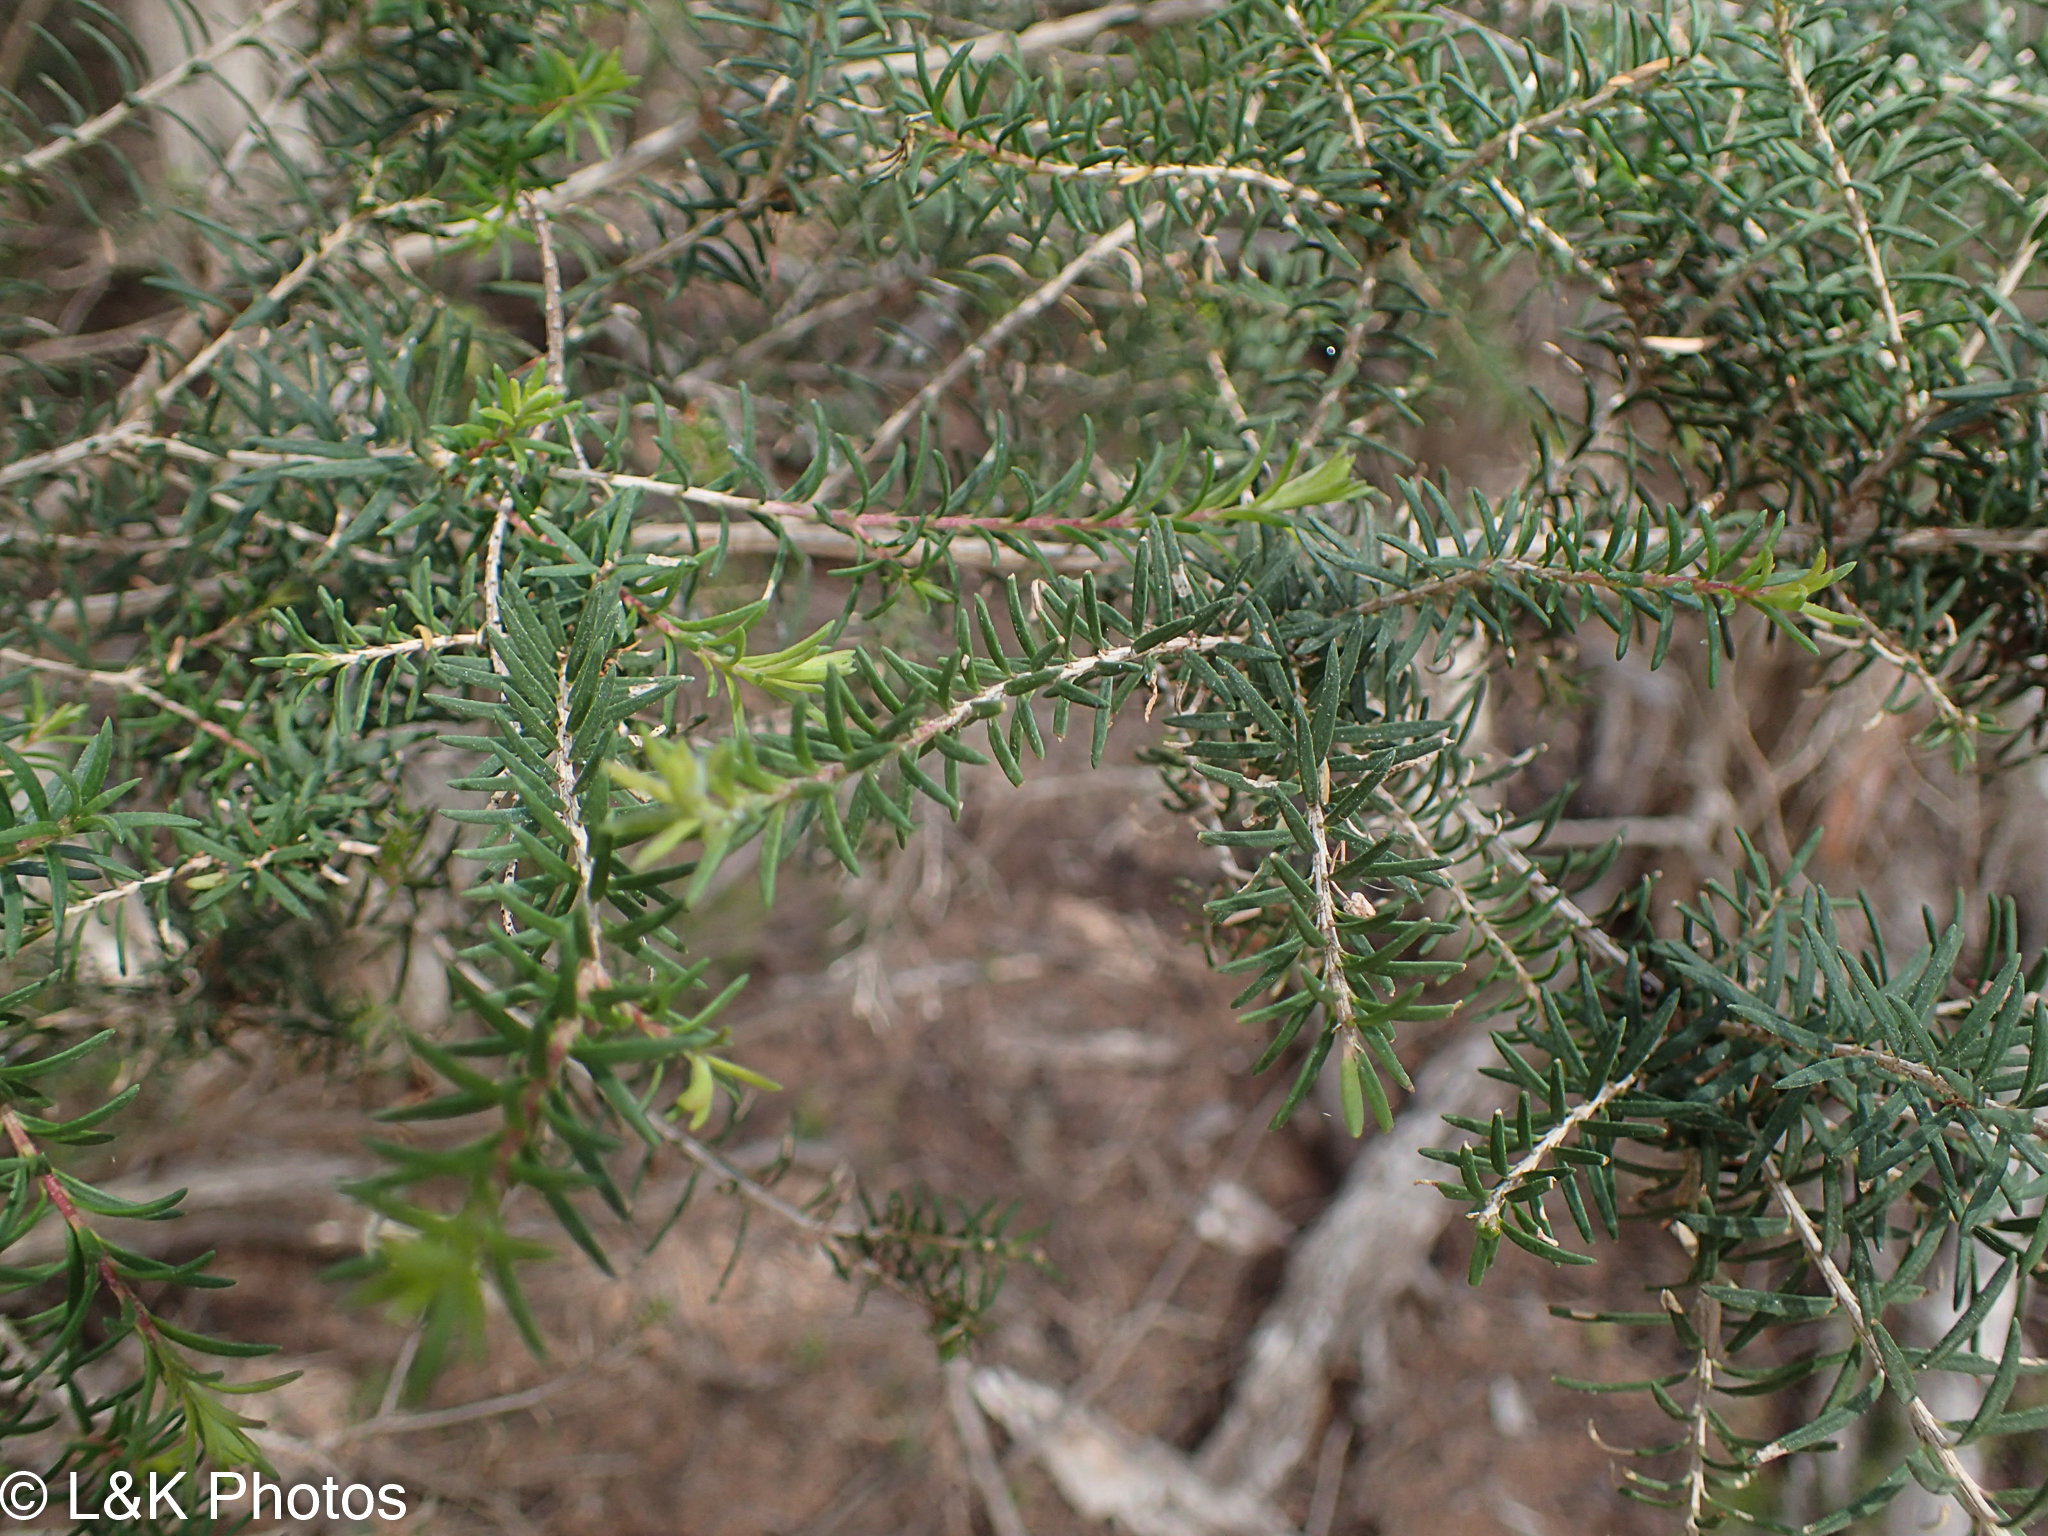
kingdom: Plantae
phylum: Tracheophyta
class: Magnoliopsida
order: Myrtales
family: Myrtaceae
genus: Melaleuca
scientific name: Melaleuca ericifolia
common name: Paperbark teatree
